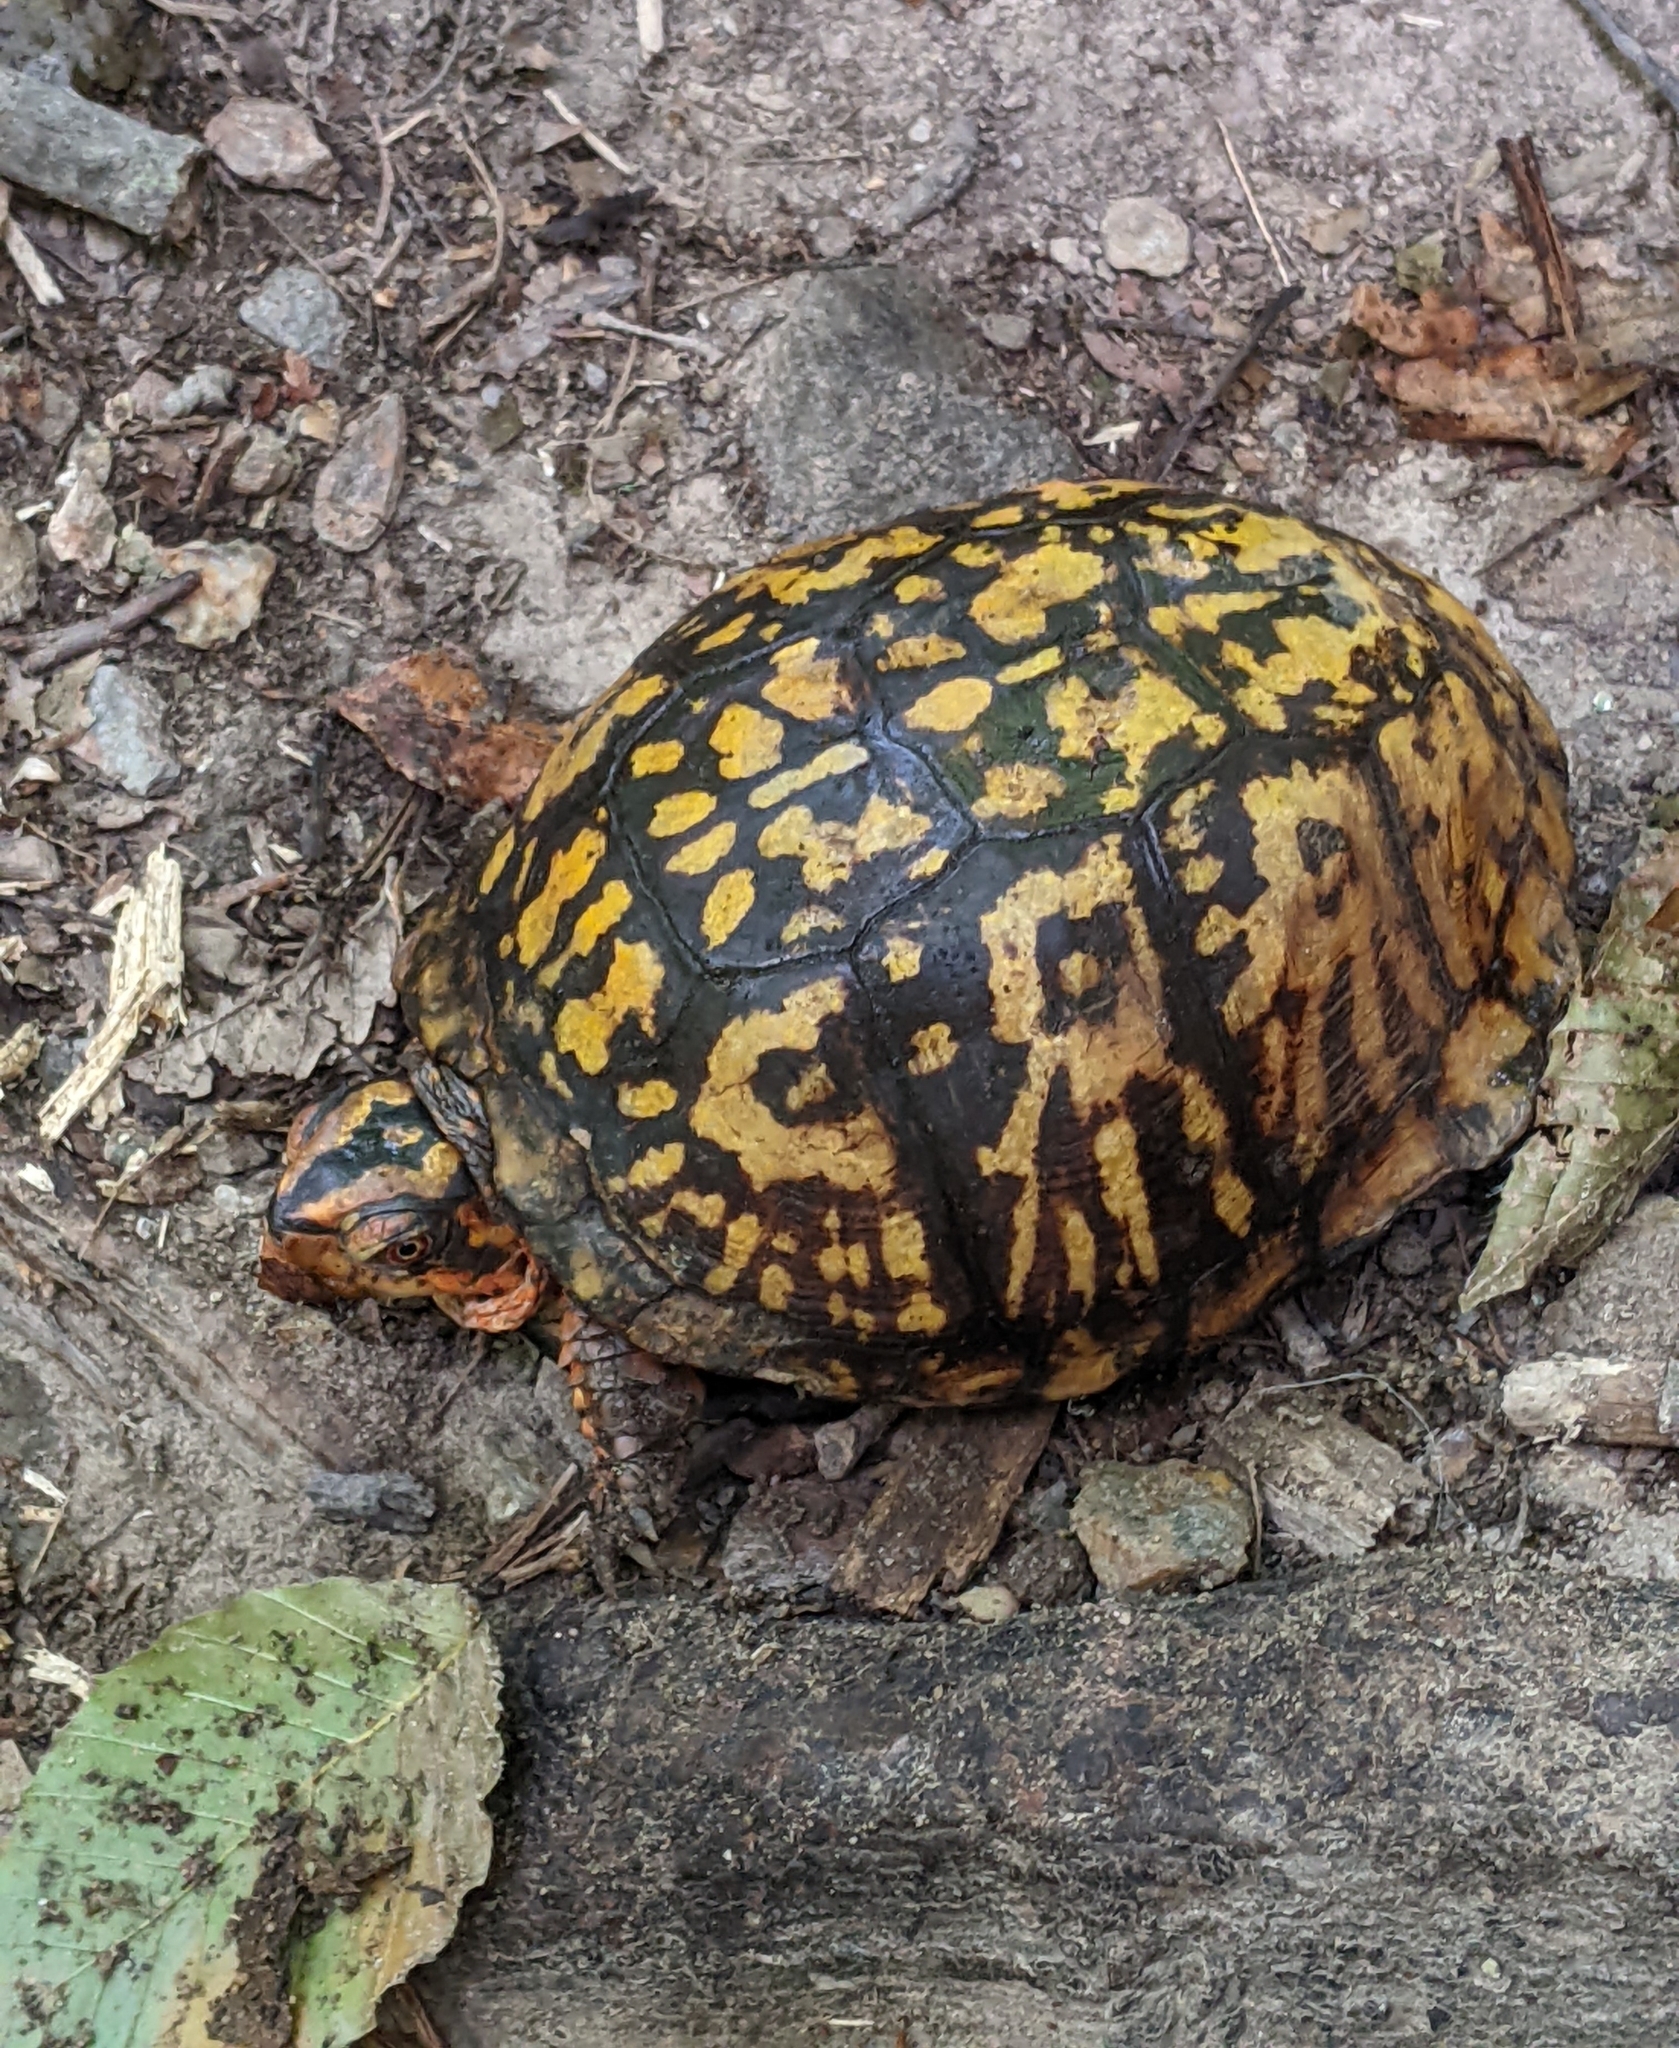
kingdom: Animalia
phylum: Chordata
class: Testudines
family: Emydidae
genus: Terrapene
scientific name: Terrapene carolina
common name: Common box turtle
